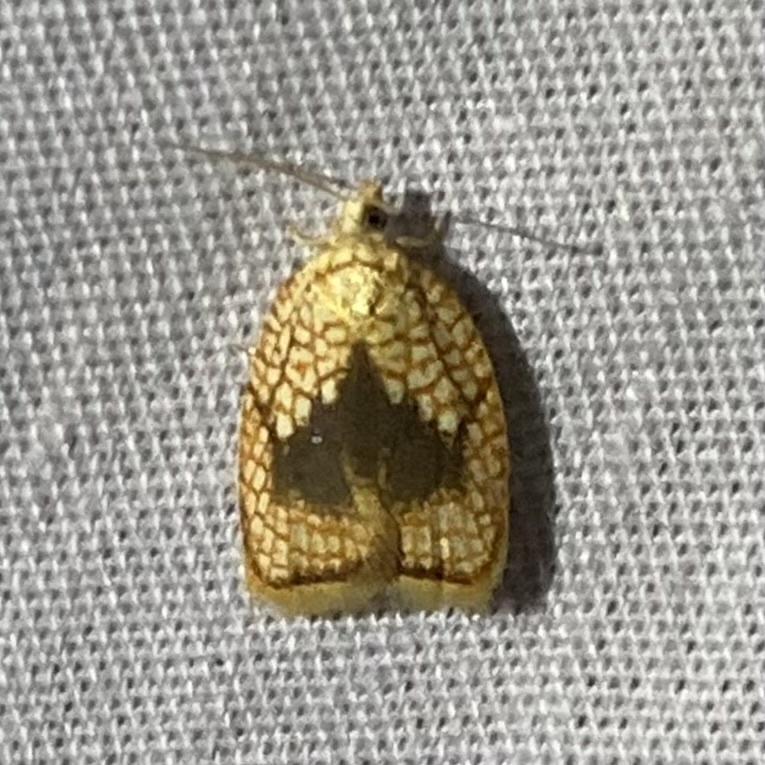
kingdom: Animalia
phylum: Arthropoda
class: Insecta
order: Lepidoptera
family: Tortricidae
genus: Acleris
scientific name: Acleris forsskaleana
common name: Maple button
